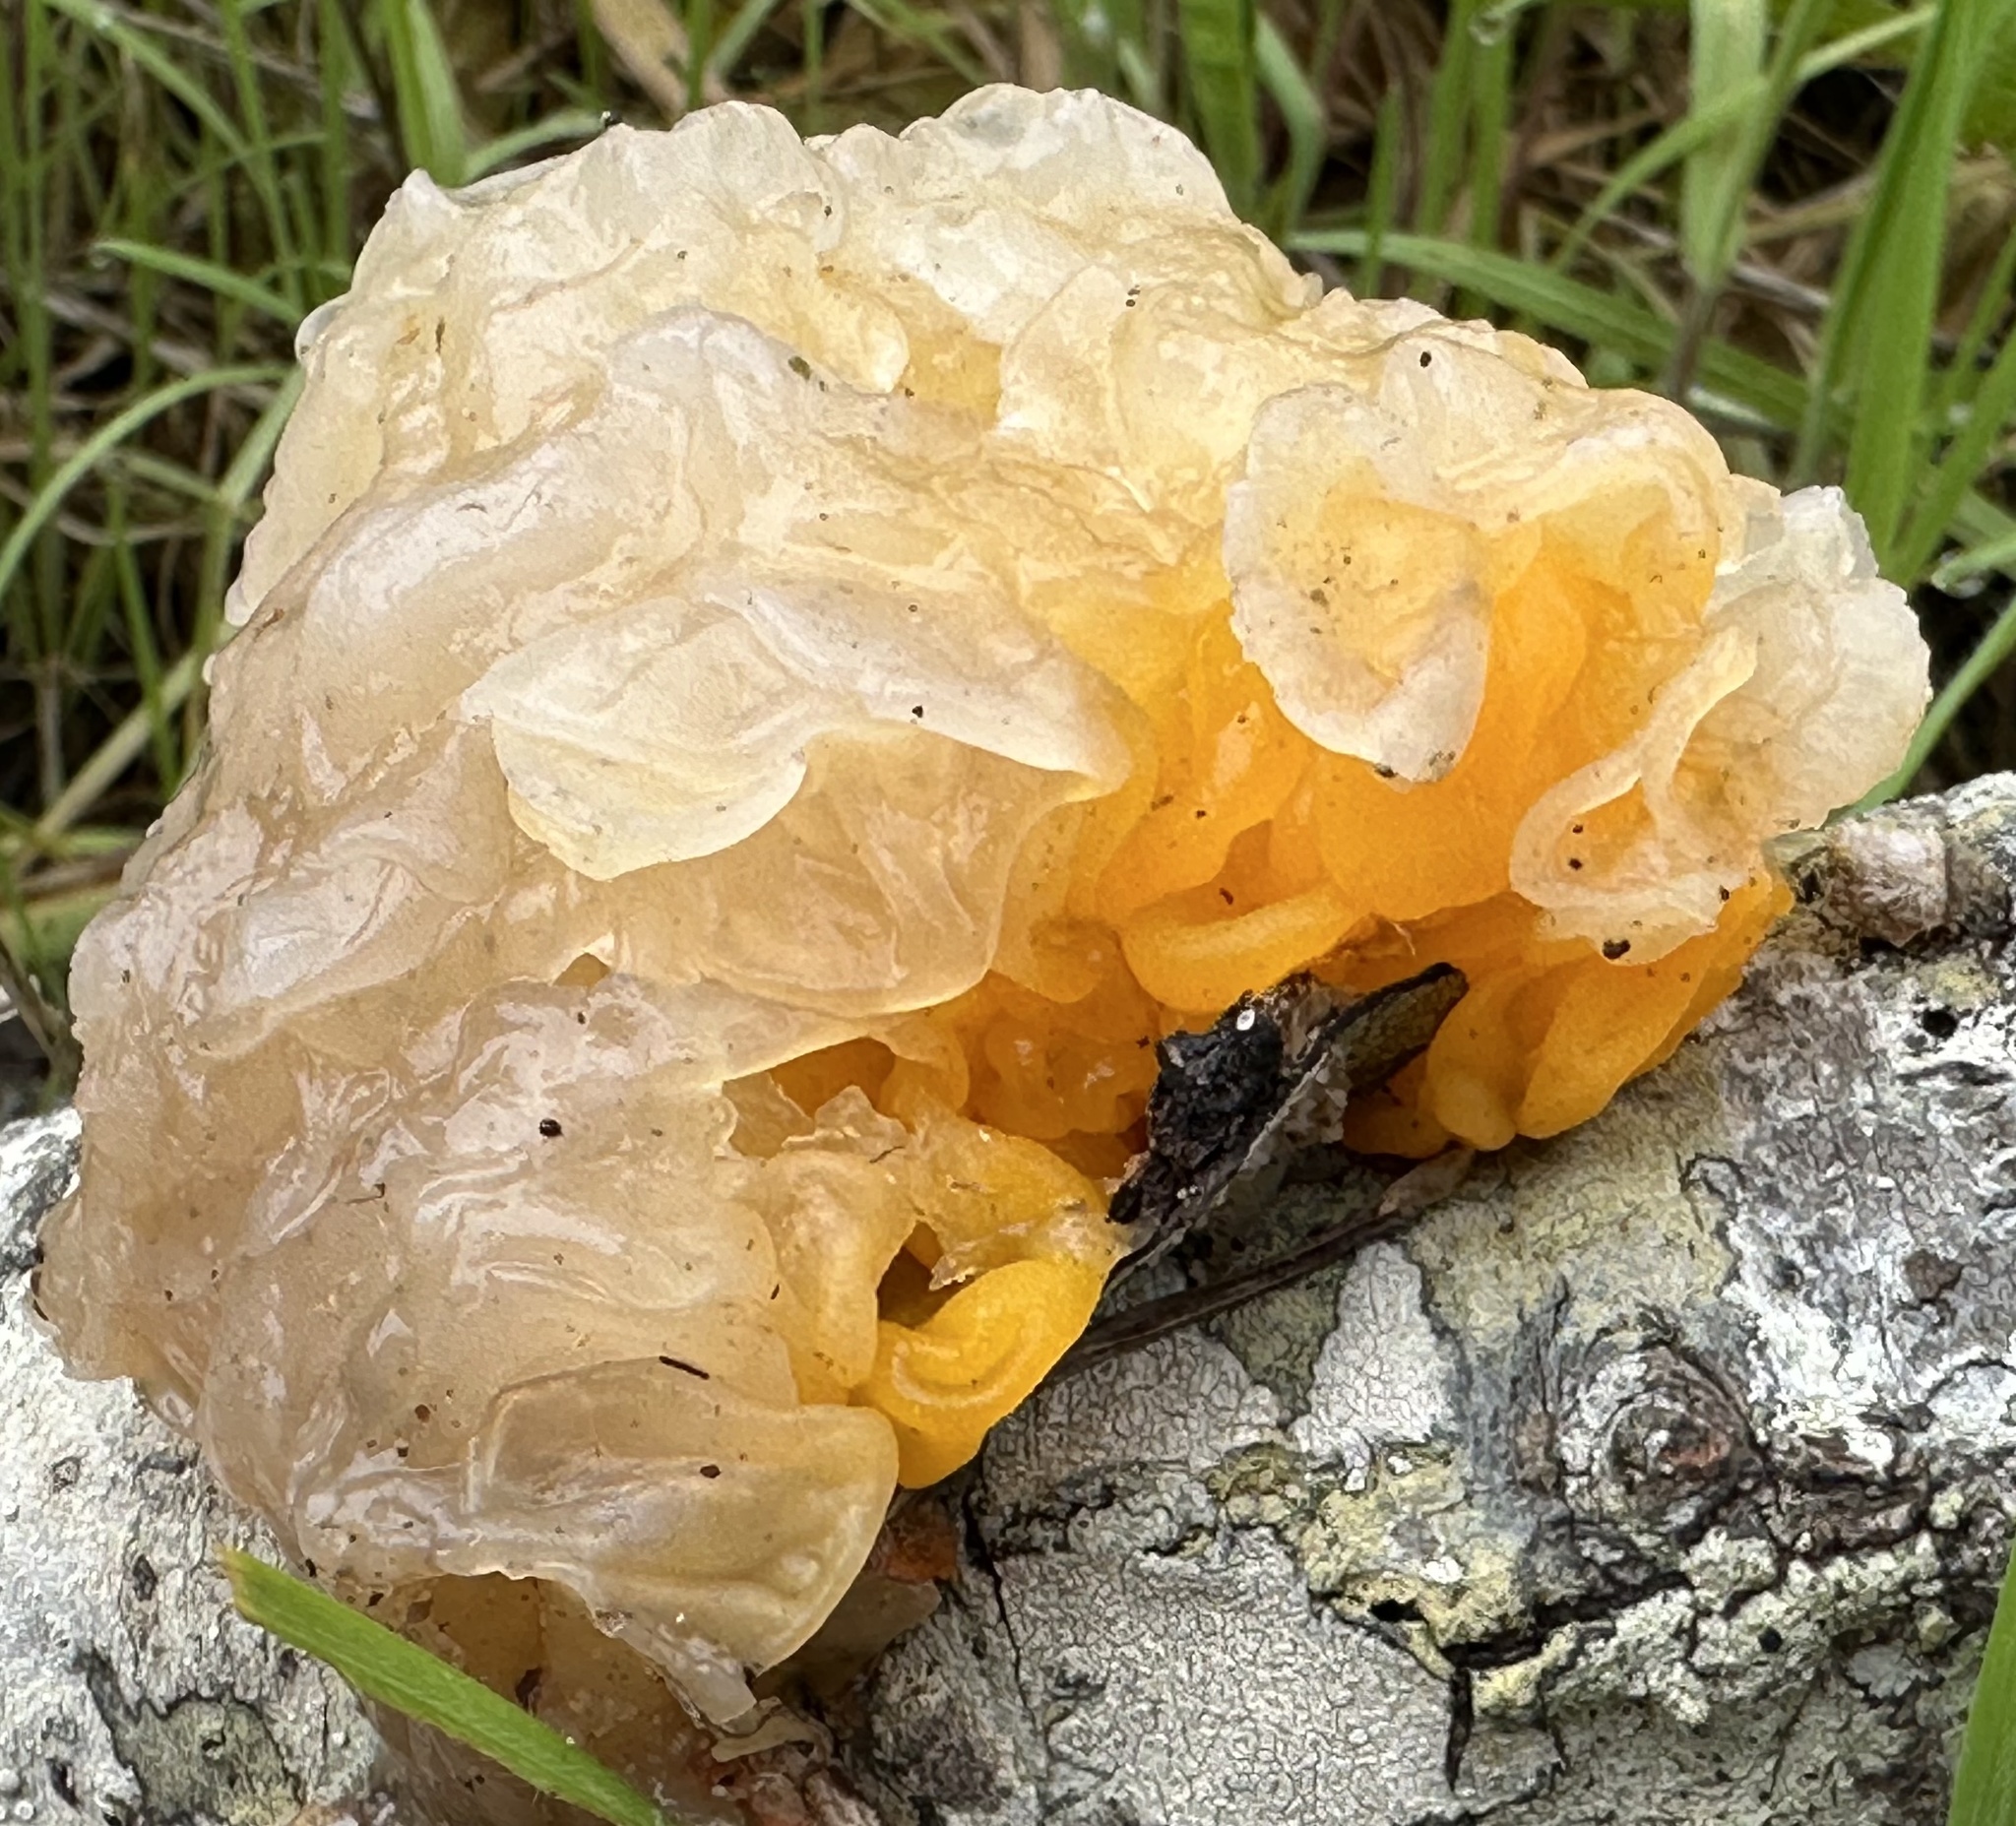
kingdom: Fungi
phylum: Basidiomycota
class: Tremellomycetes
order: Tremellales
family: Naemateliaceae
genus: Naematelia
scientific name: Naematelia aurantia
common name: Golden ear
